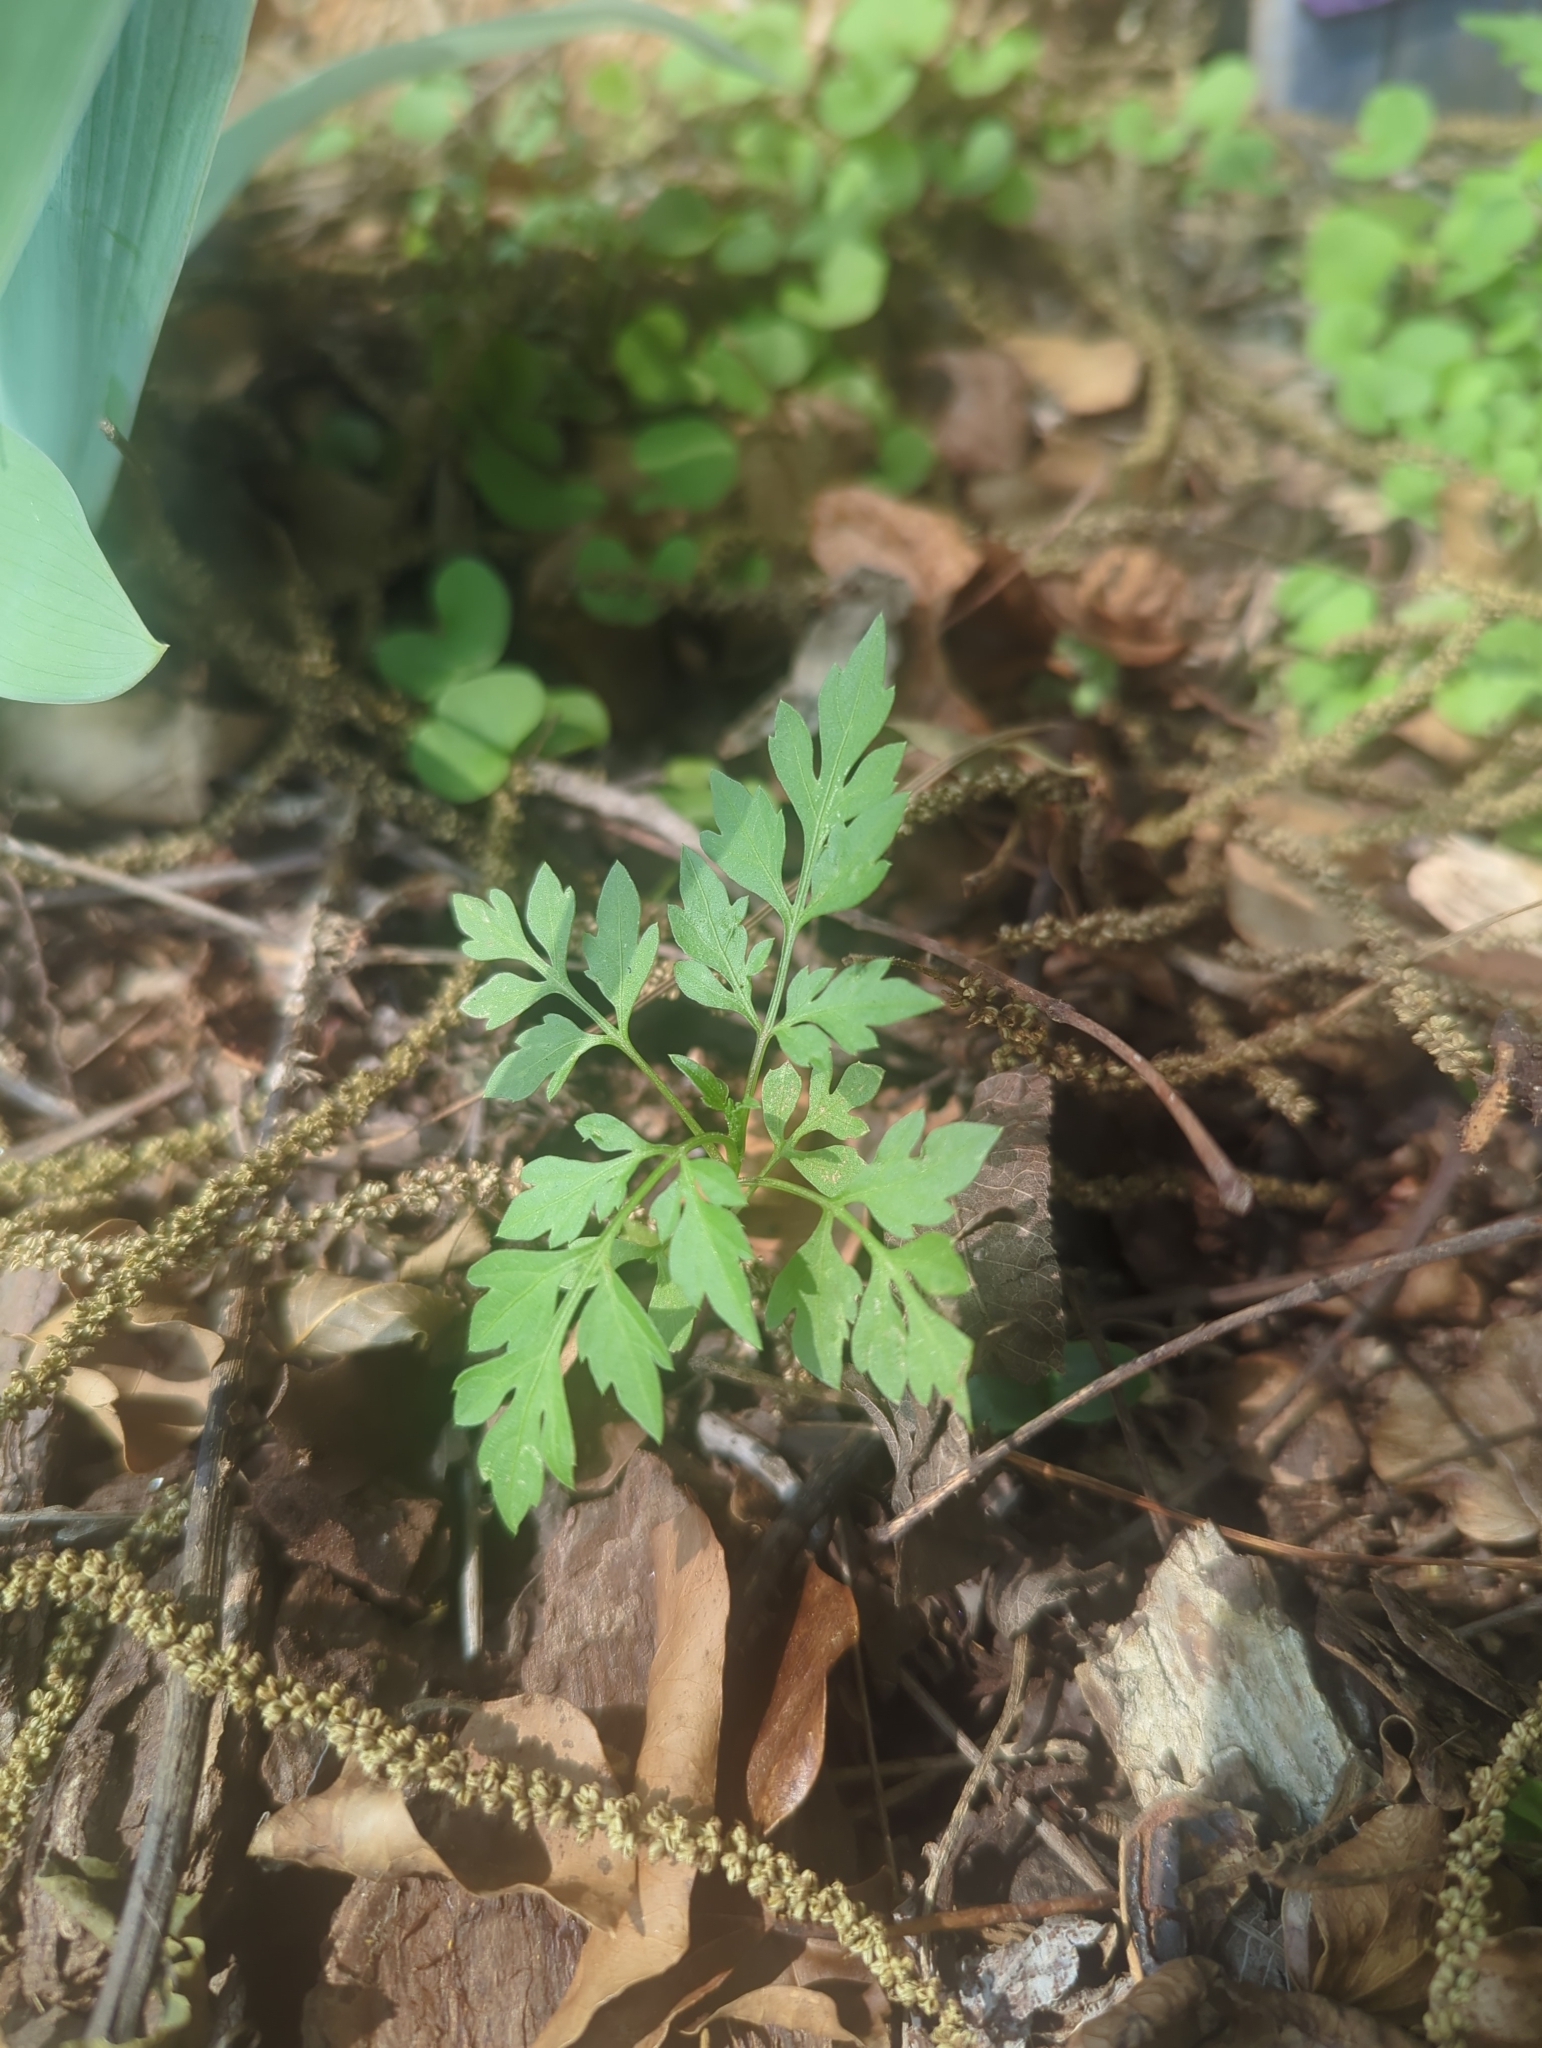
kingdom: Plantae
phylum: Tracheophyta
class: Magnoliopsida
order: Asterales
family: Asteraceae
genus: Bidens
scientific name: Bidens bipinnata
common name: Spanish-needles
